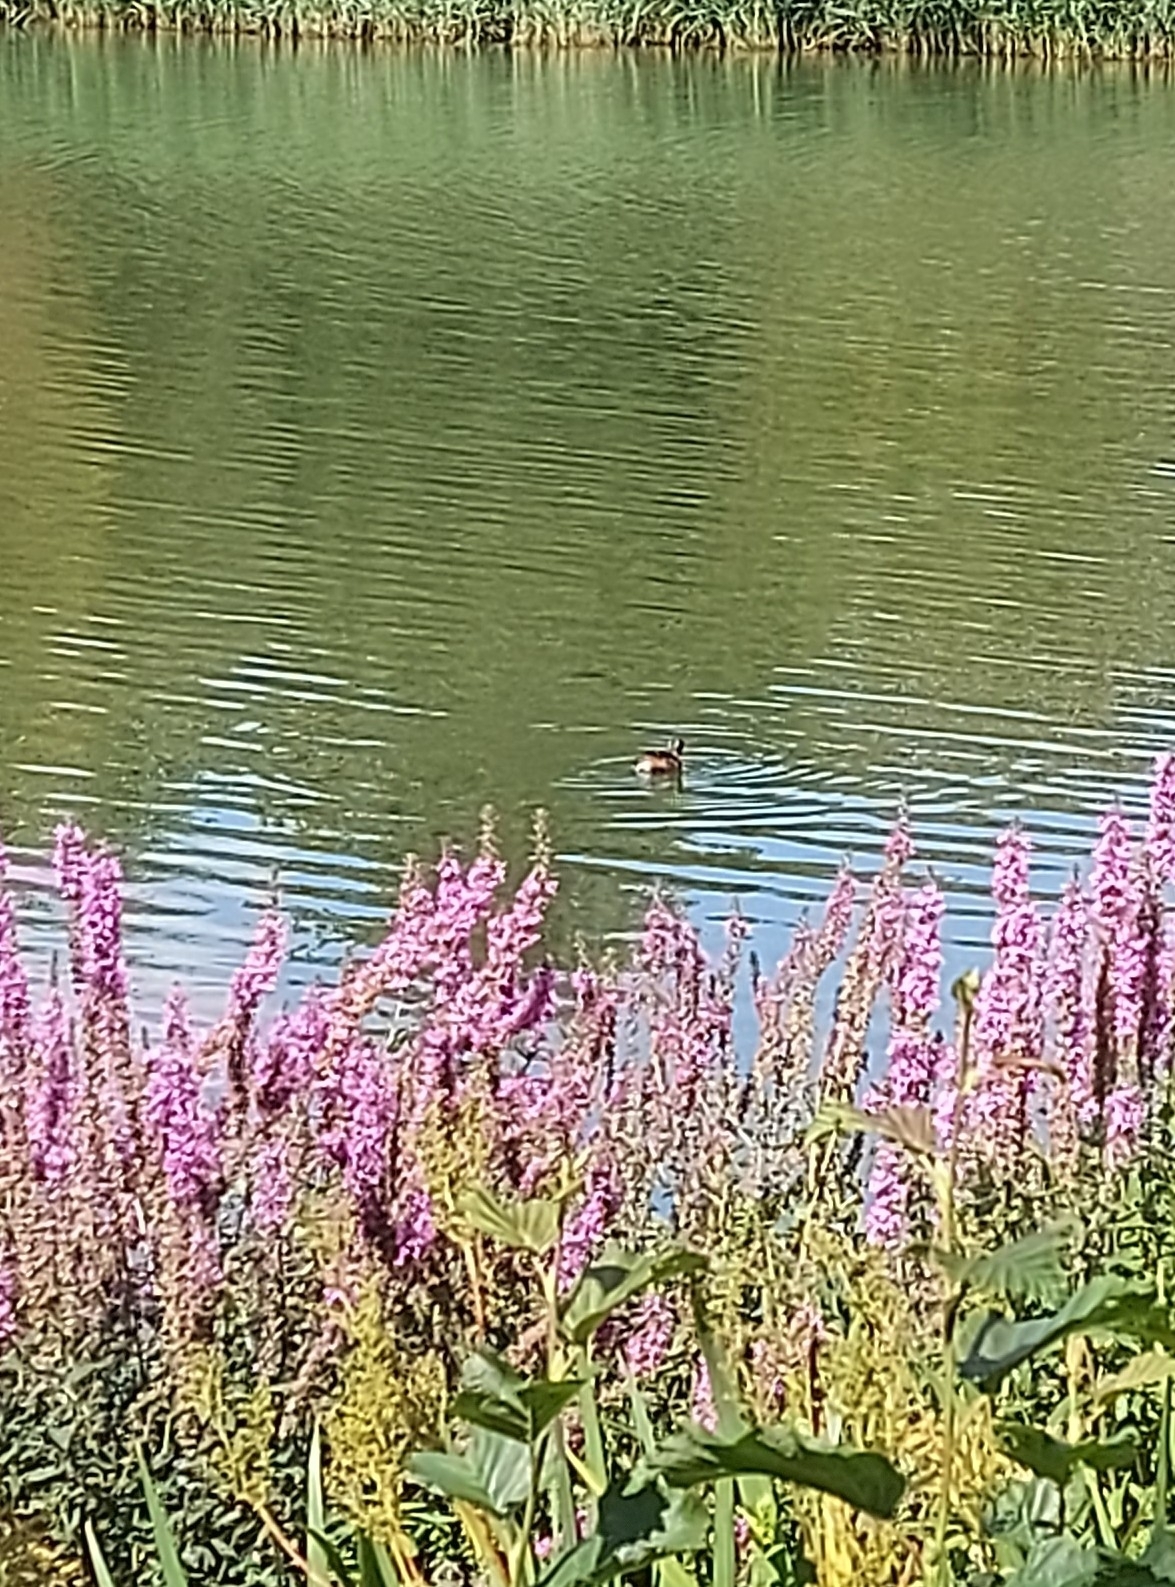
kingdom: Animalia
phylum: Chordata
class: Aves
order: Podicipediformes
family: Podicipedidae
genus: Tachybaptus
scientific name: Tachybaptus ruficollis
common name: Little grebe
